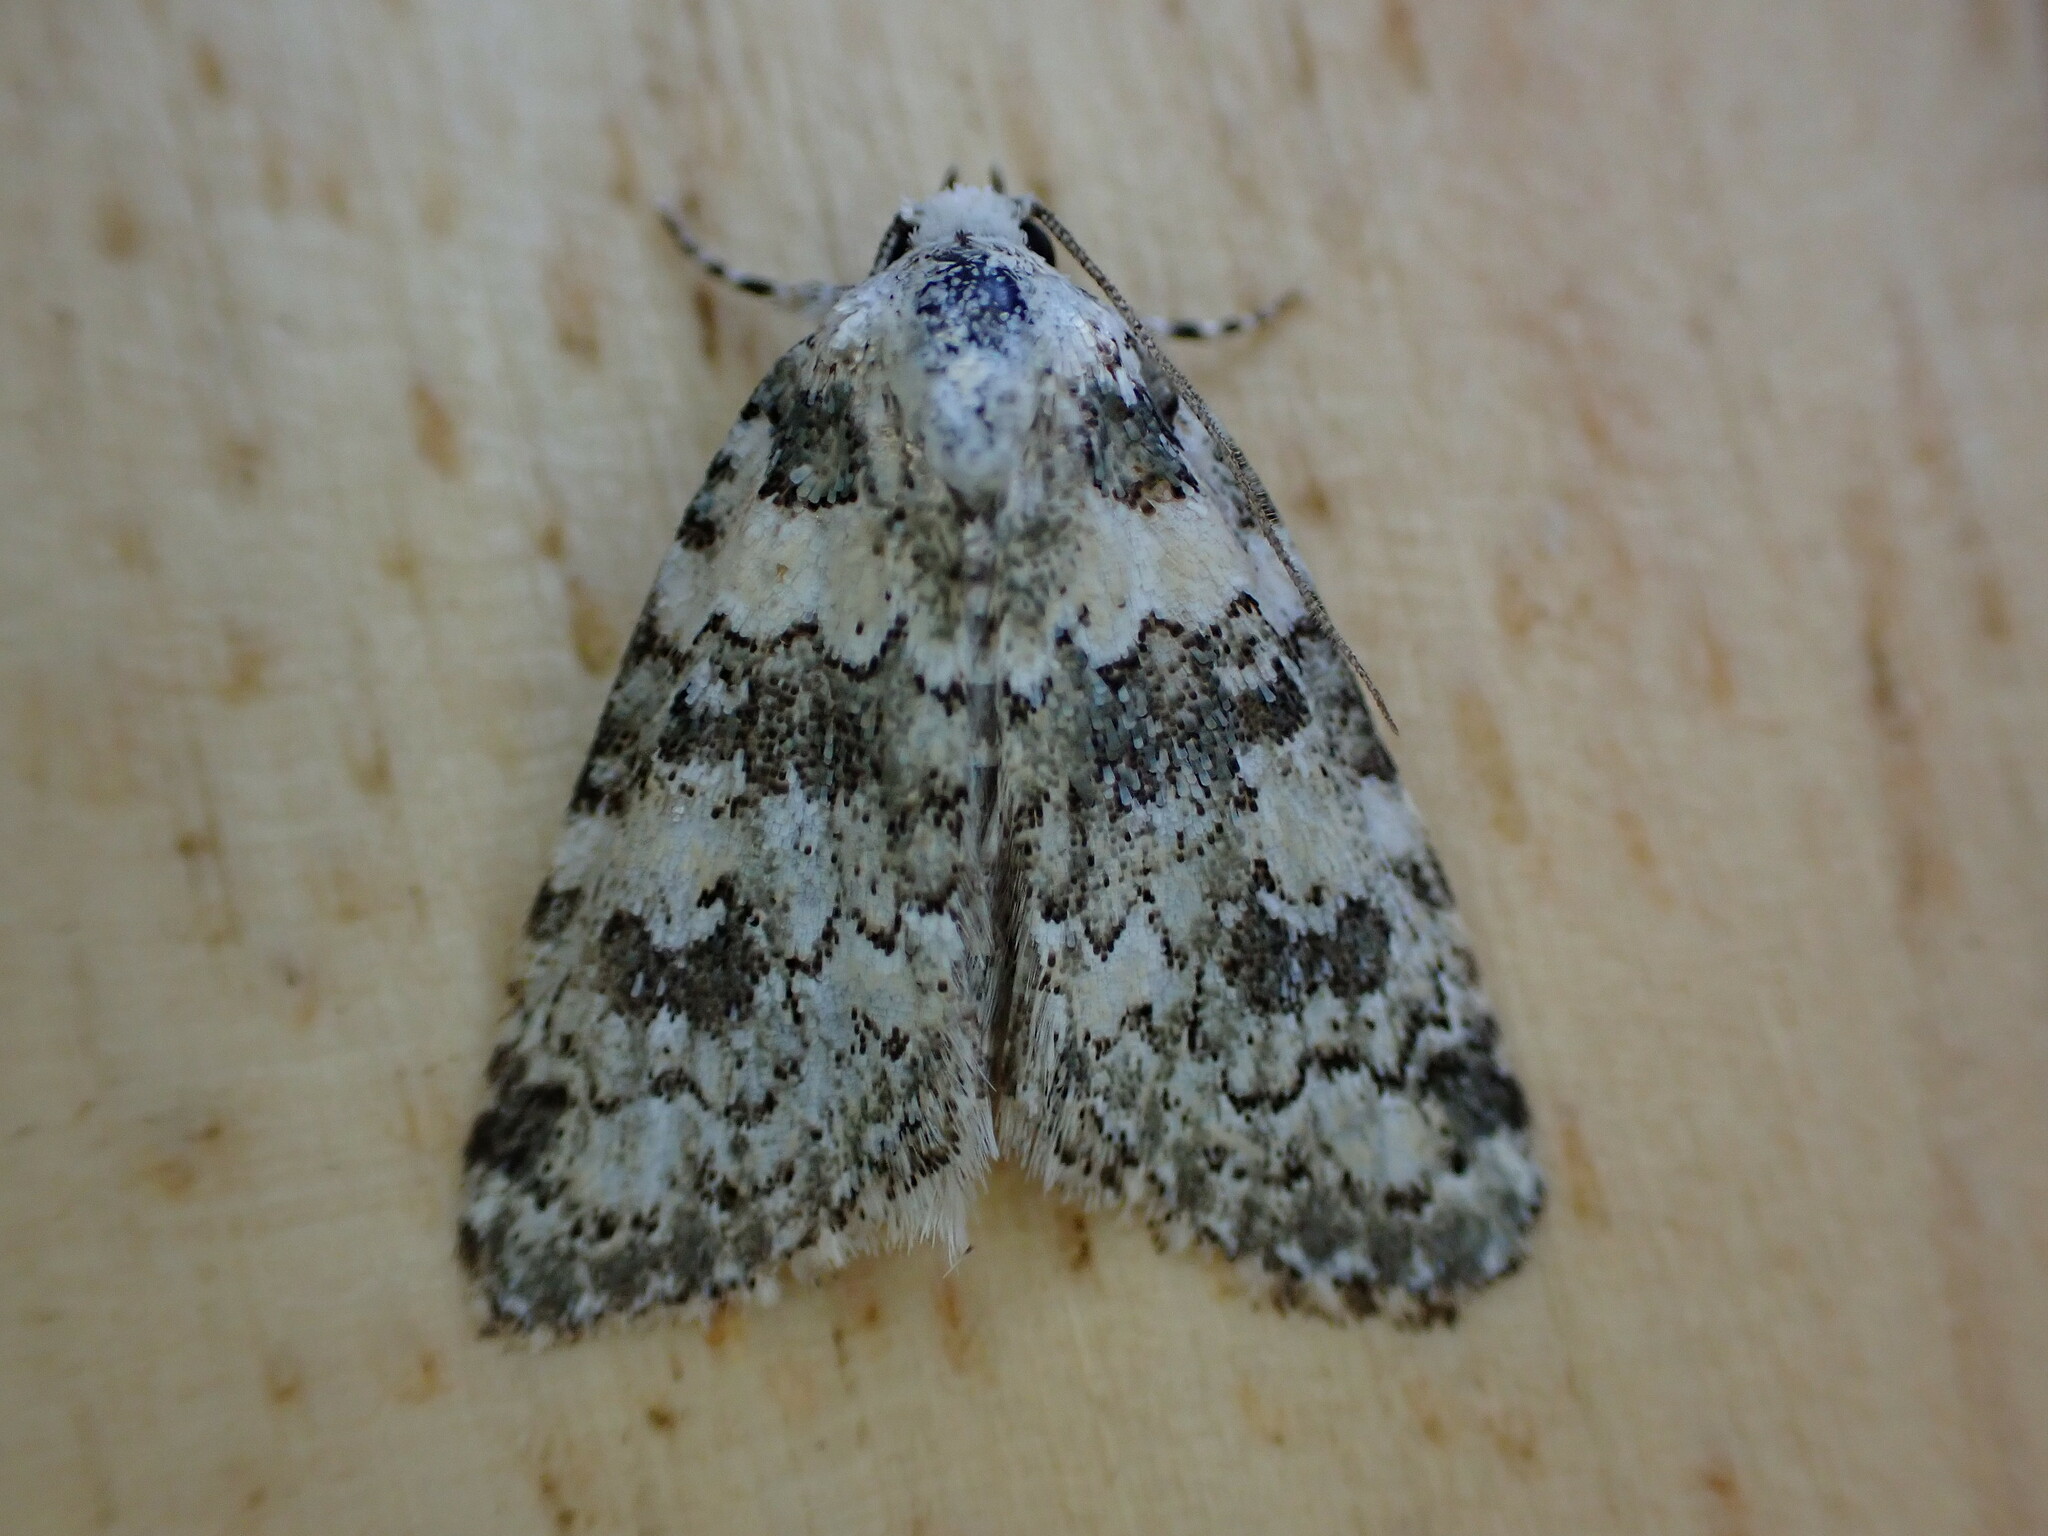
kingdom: Animalia
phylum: Arthropoda
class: Insecta
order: Lepidoptera
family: Noctuidae
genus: Bryophila
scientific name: Bryophila domestica
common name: Marbled beauty
